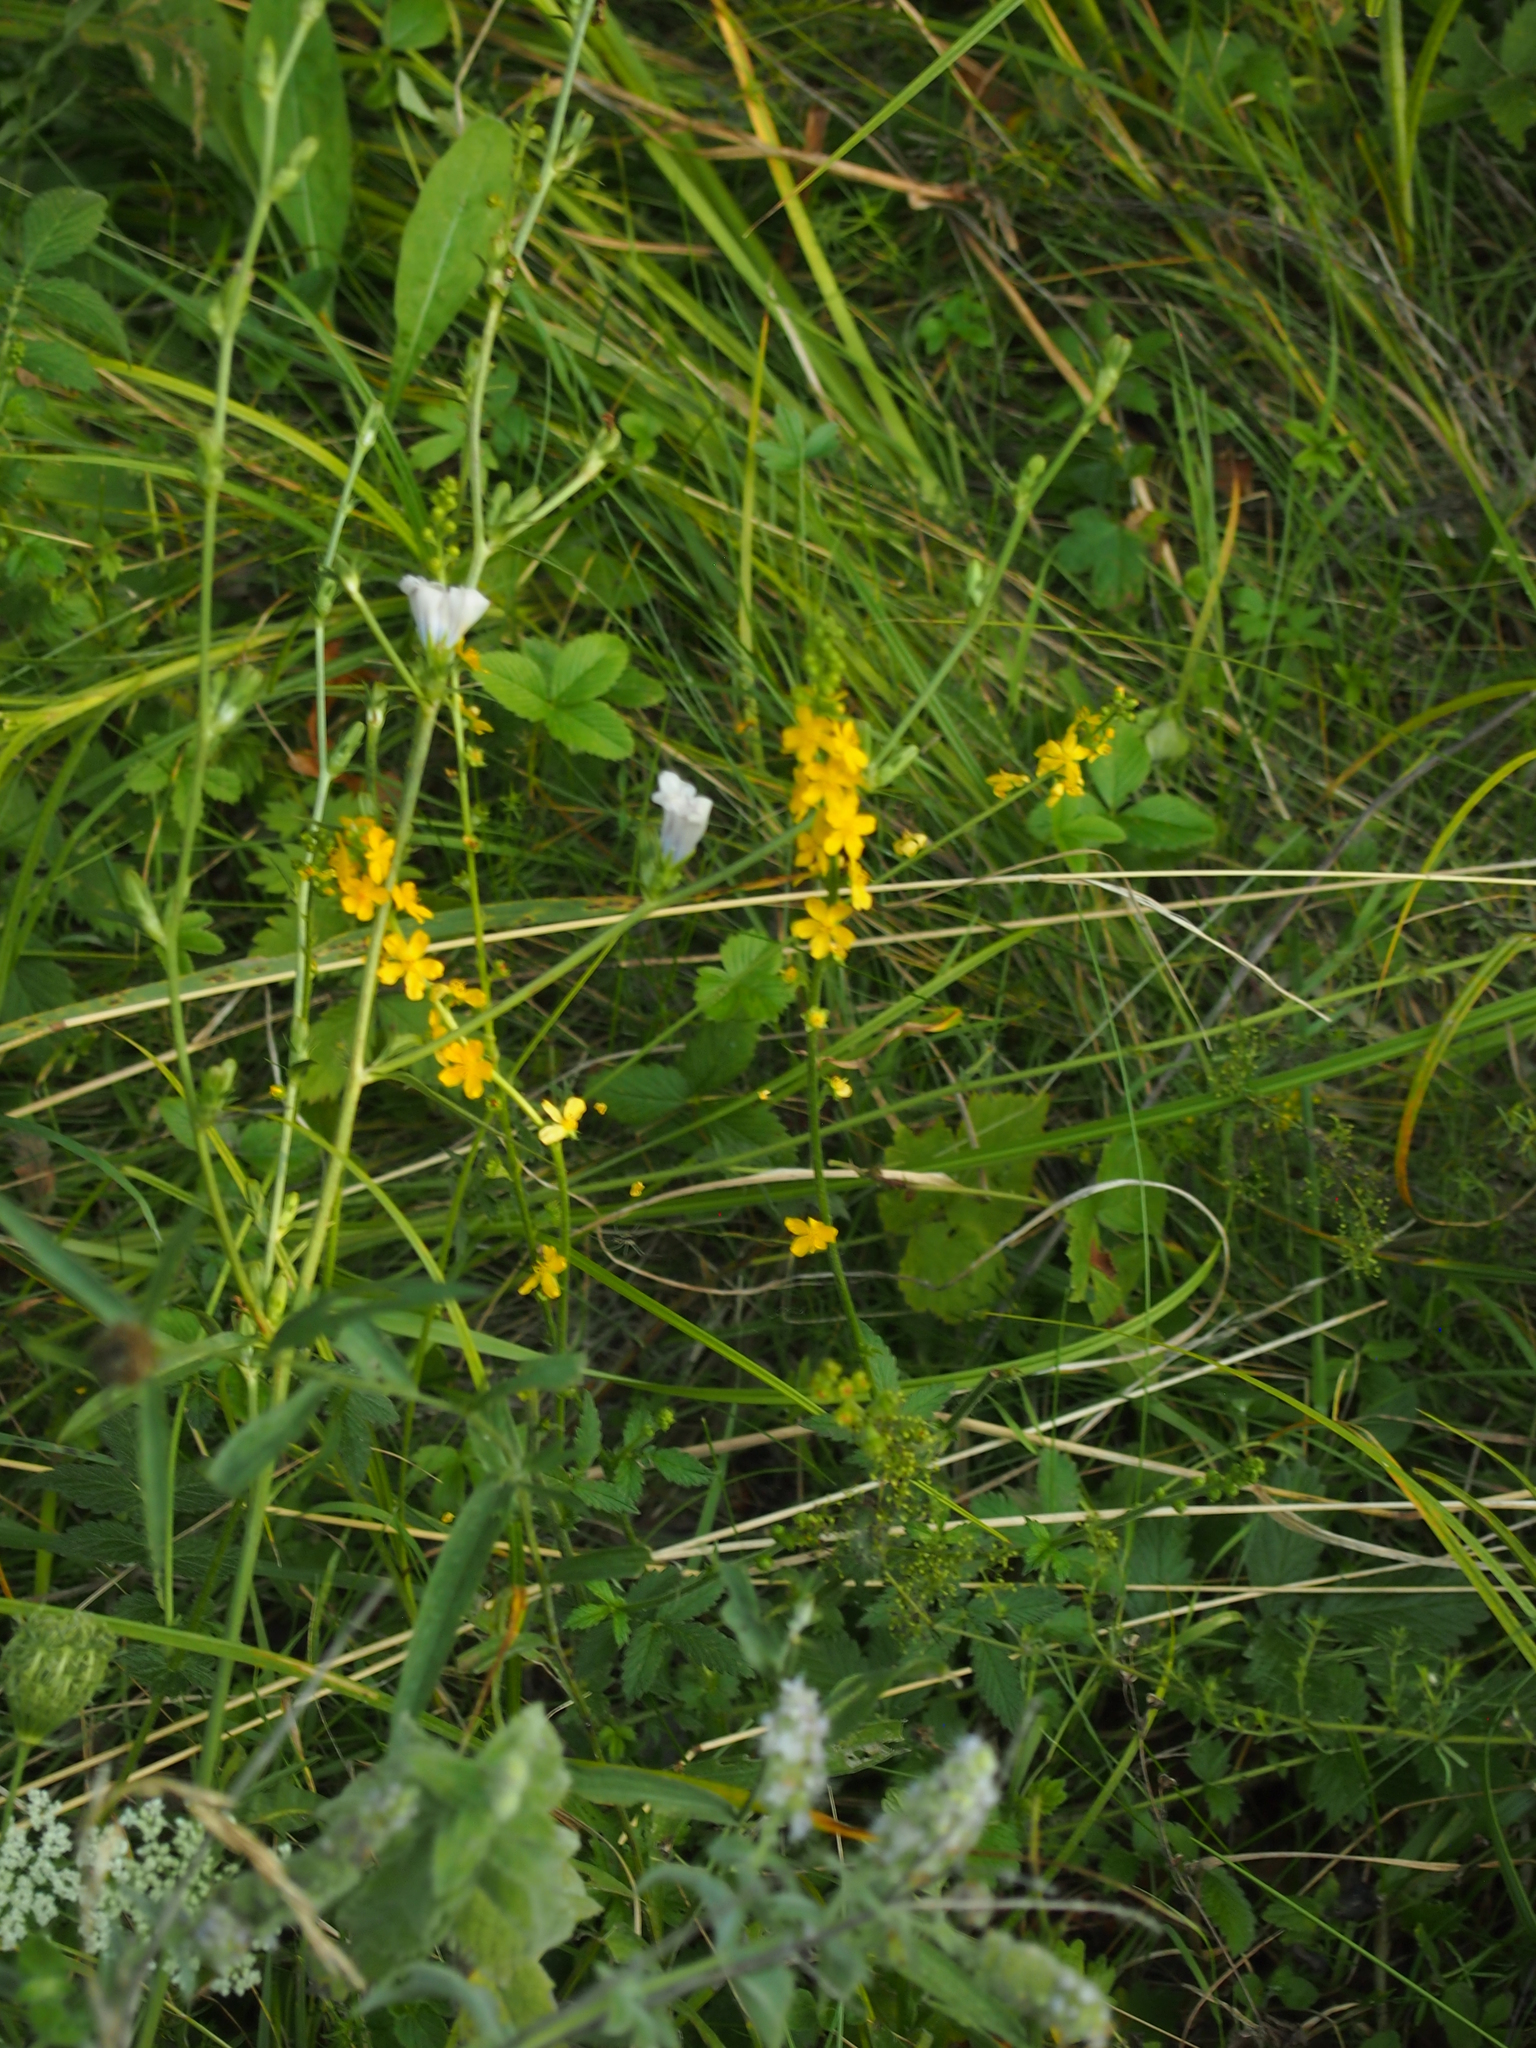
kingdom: Plantae
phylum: Tracheophyta
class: Magnoliopsida
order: Rosales
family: Rosaceae
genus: Agrimonia
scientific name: Agrimonia eupatoria
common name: Agrimony
